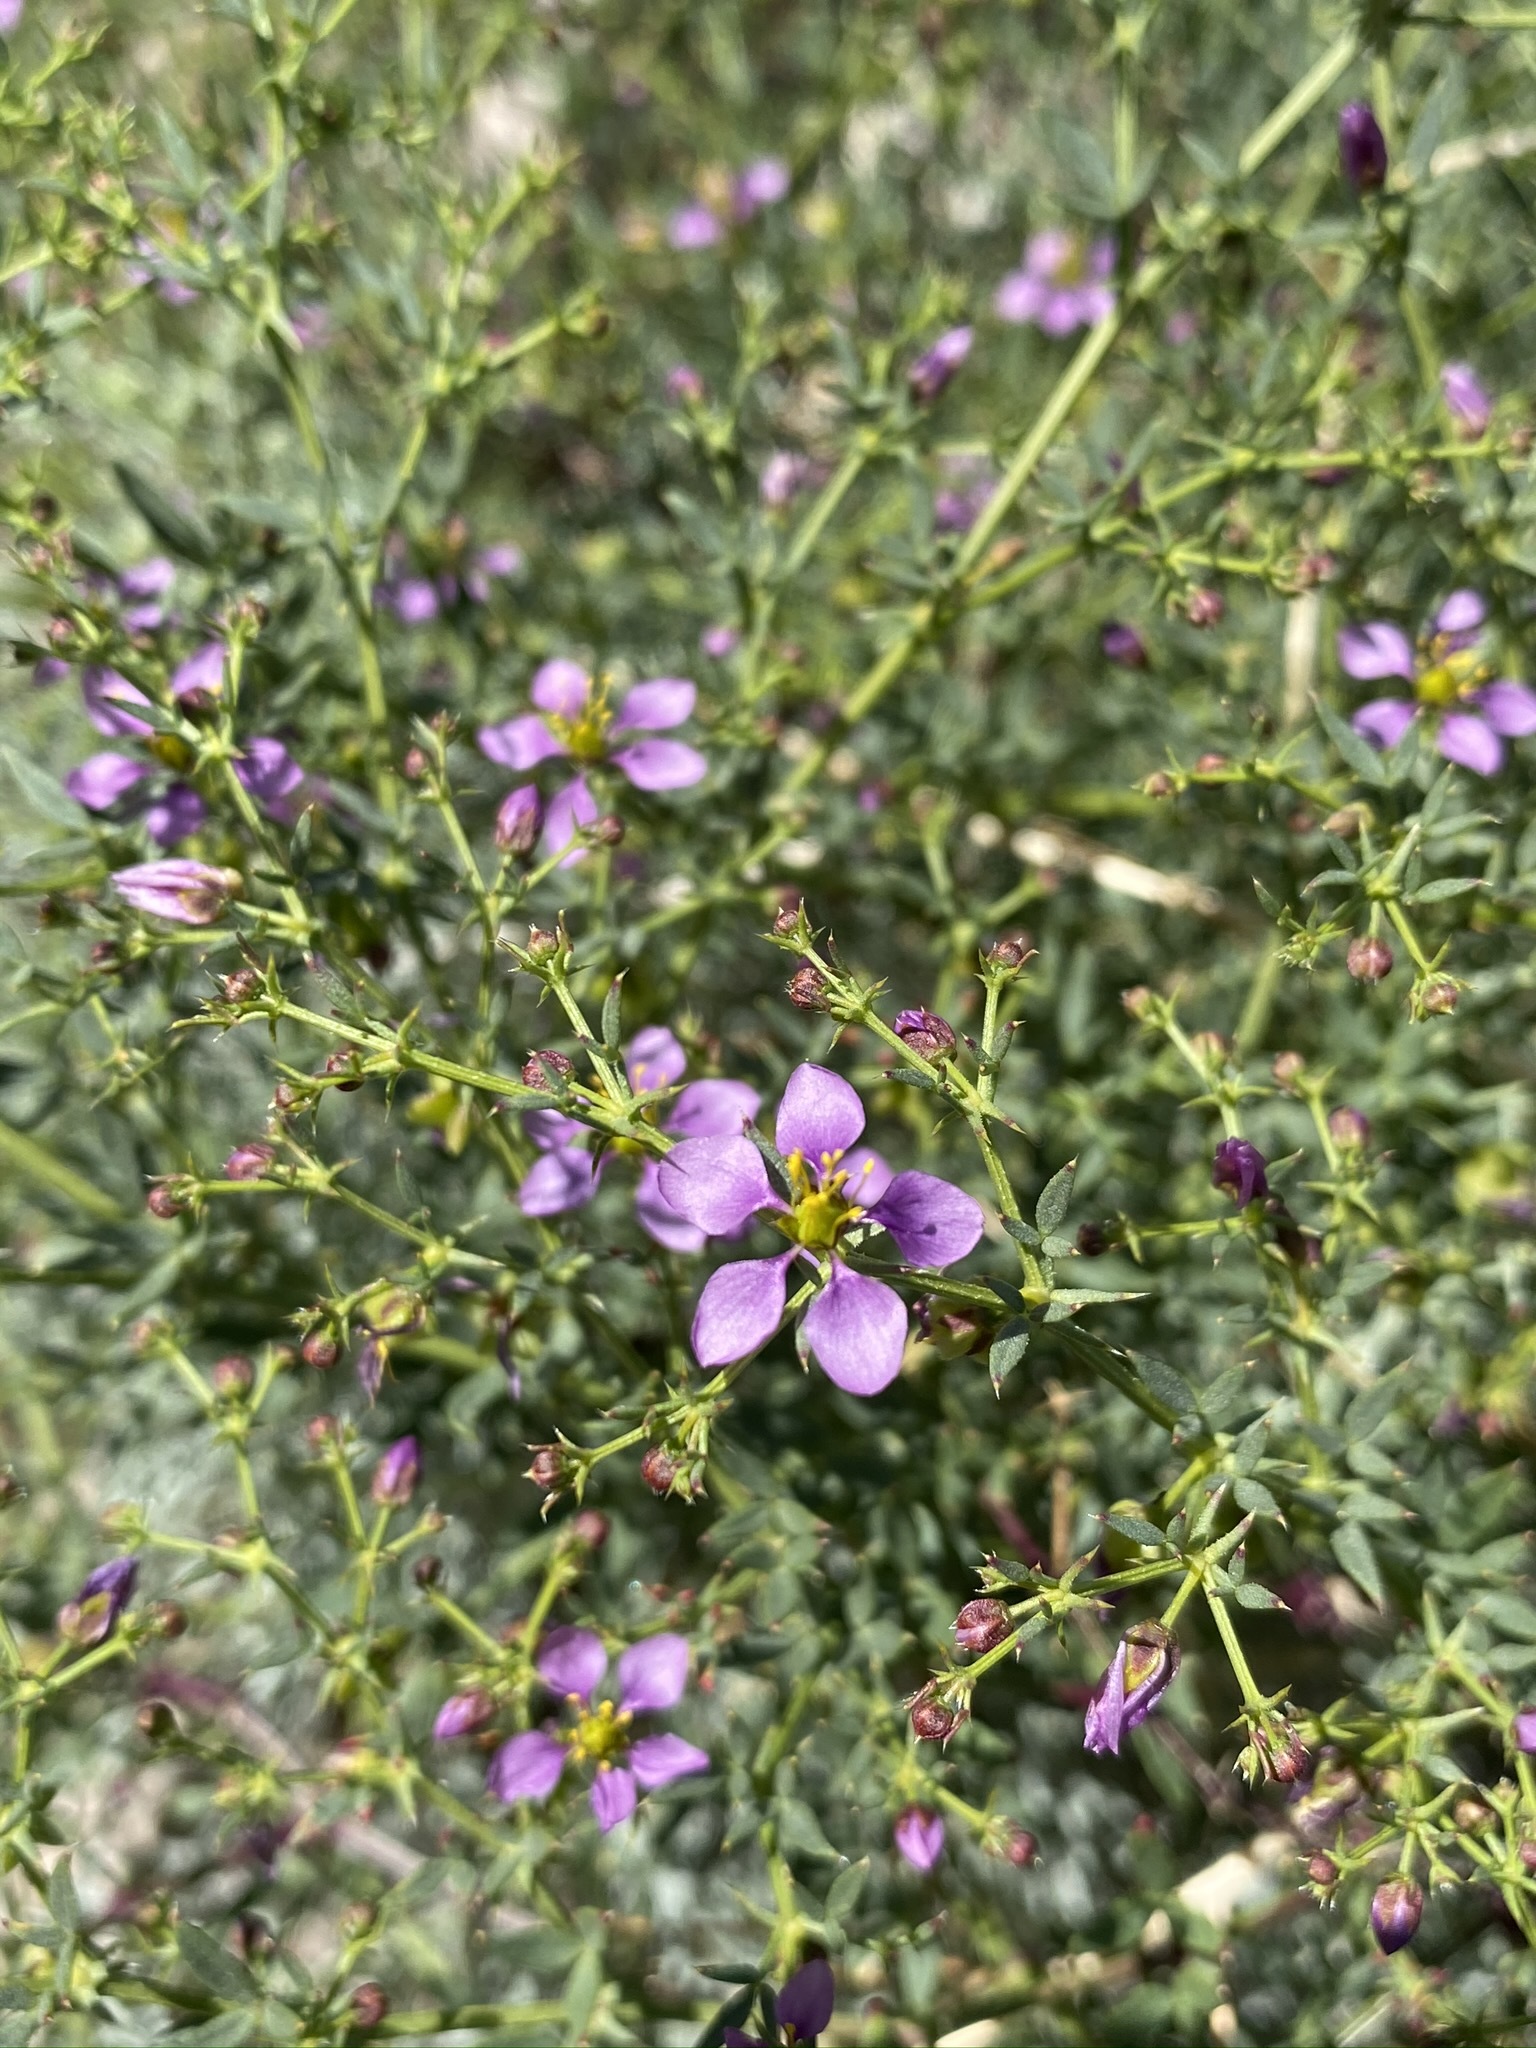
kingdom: Plantae
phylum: Tracheophyta
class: Magnoliopsida
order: Zygophyllales
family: Zygophyllaceae
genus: Fagonia
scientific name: Fagonia laevis
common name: California fagonbush
